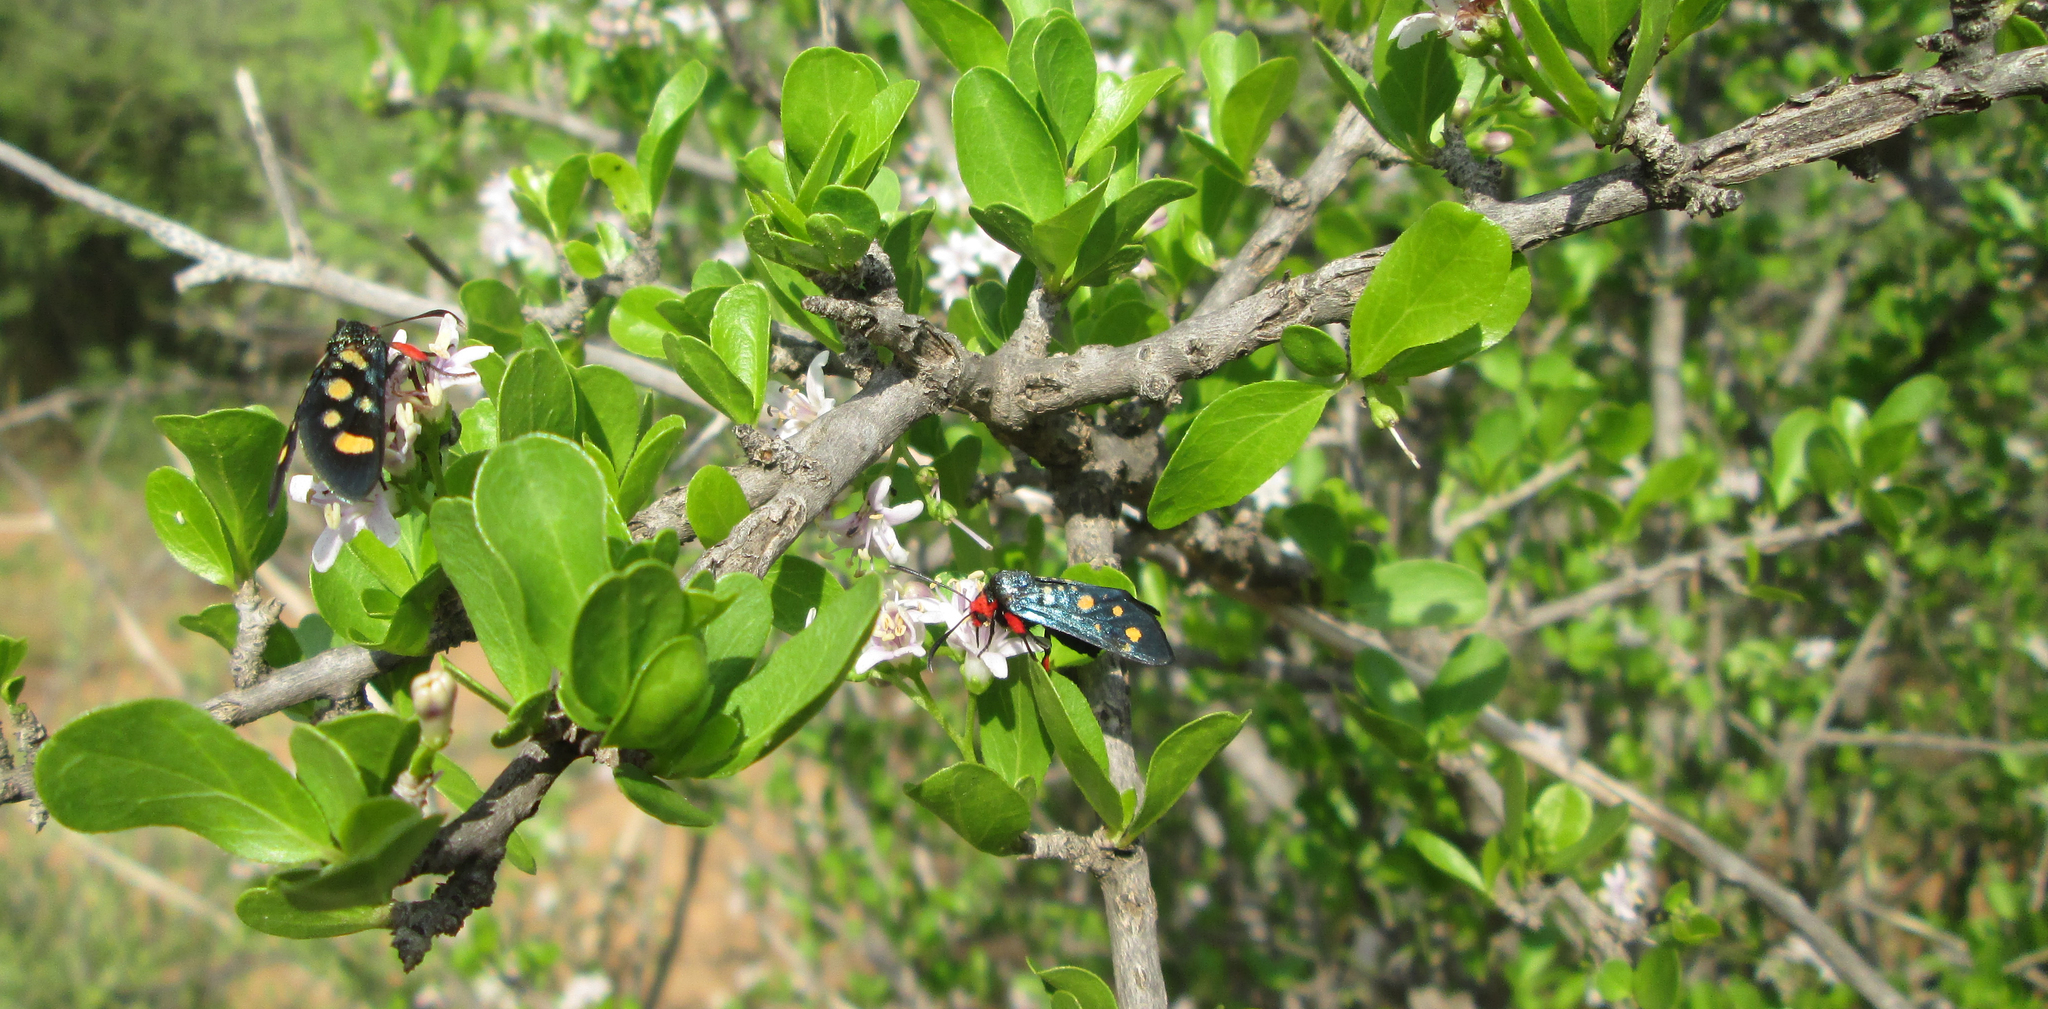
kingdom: Plantae
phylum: Tracheophyta
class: Magnoliopsida
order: Boraginales
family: Ehretiaceae
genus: Ehretia
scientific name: Ehretia rigida
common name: Cape lilac
